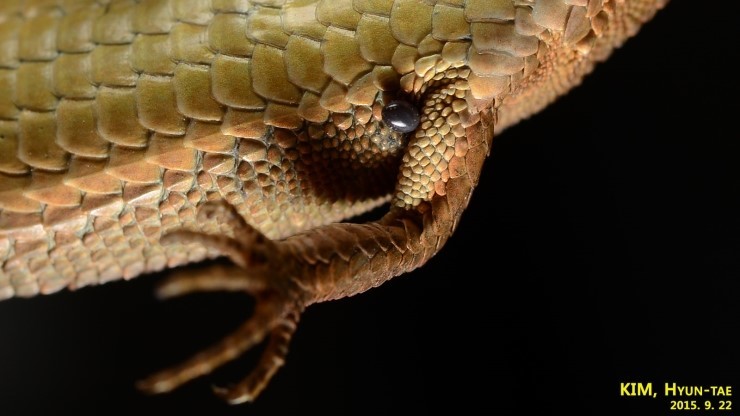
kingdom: Animalia
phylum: Arthropoda
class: Arachnida
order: Ixodida
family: Ixodidae
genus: Ixodes
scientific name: Ixodes nipponensis
